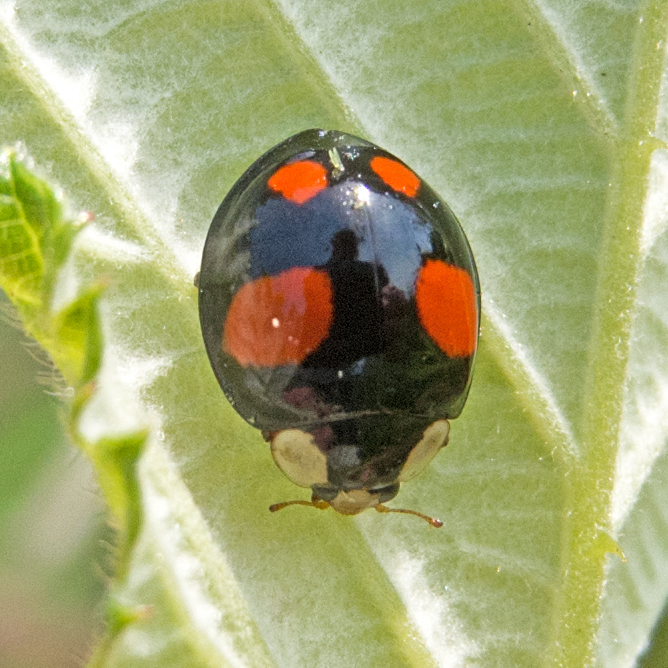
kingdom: Animalia
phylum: Arthropoda
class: Insecta
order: Coleoptera
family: Coccinellidae
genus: Harmonia
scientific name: Harmonia axyridis
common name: Harlequin ladybird
